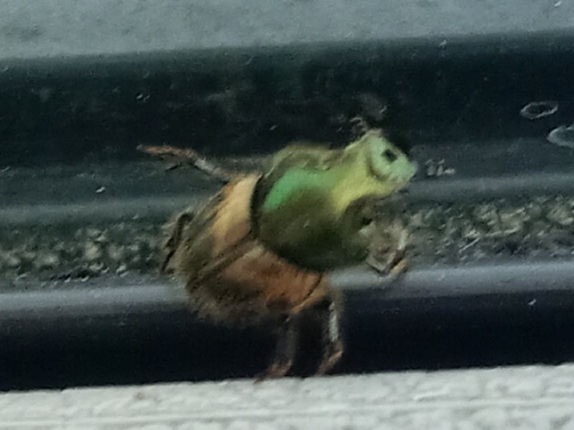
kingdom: Animalia
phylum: Arthropoda
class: Insecta
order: Coleoptera
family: Scarabaeidae
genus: Onthophagus
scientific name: Onthophagus concinnus
